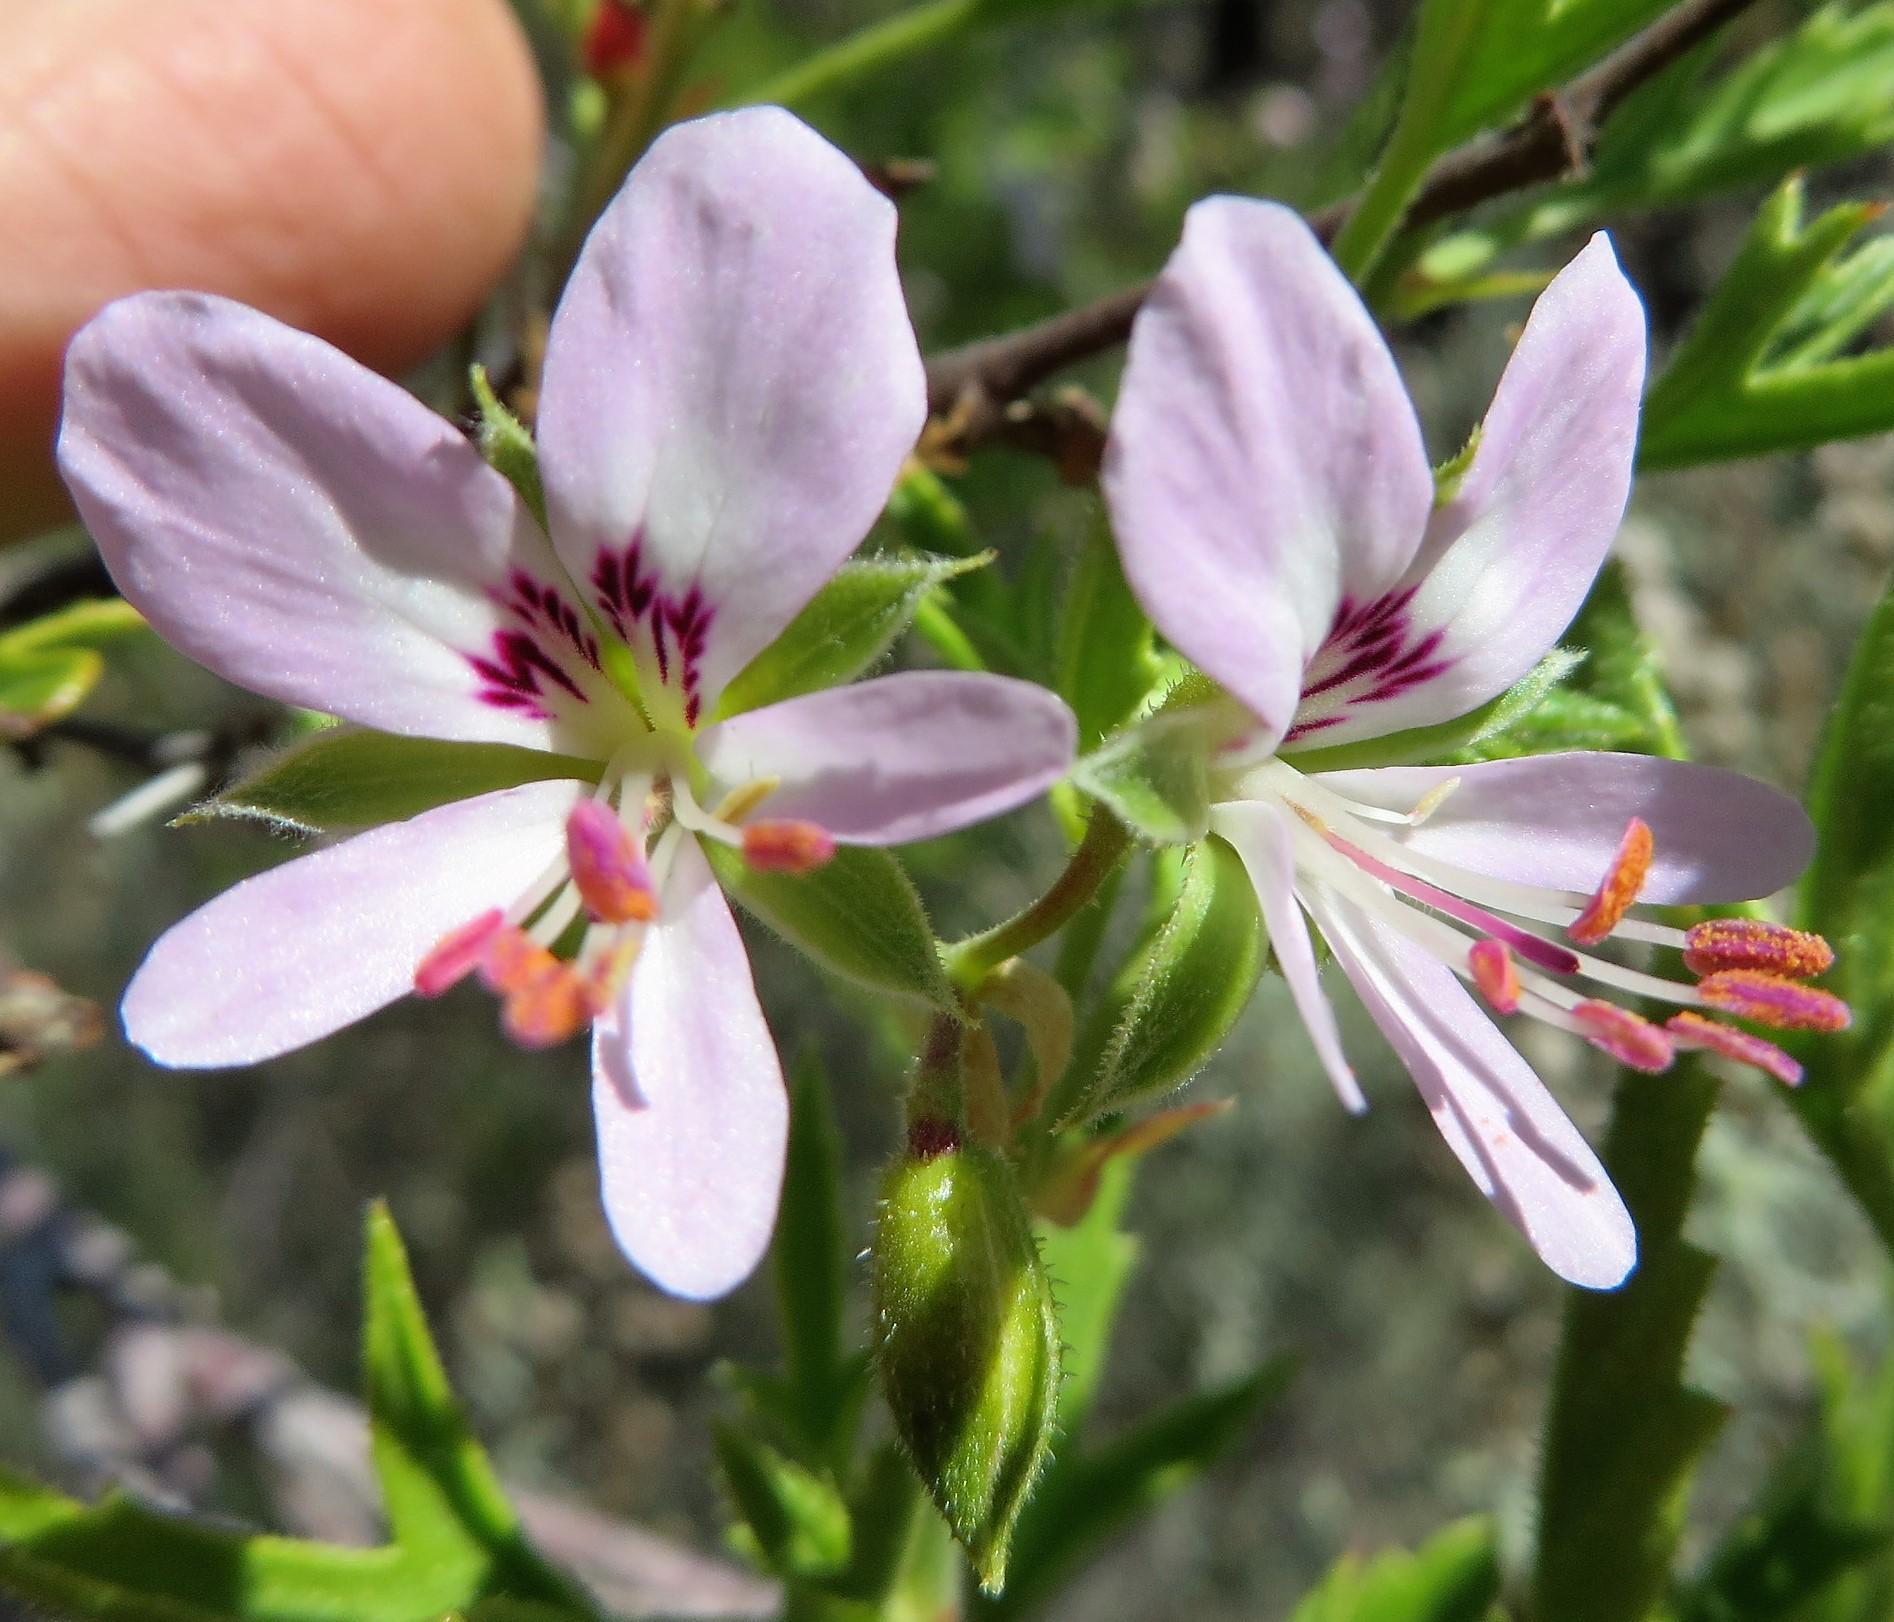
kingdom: Plantae
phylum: Tracheophyta
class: Magnoliopsida
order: Geraniales
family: Geraniaceae
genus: Pelargonium
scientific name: Pelargonium scabrum
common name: Apricot geranium
